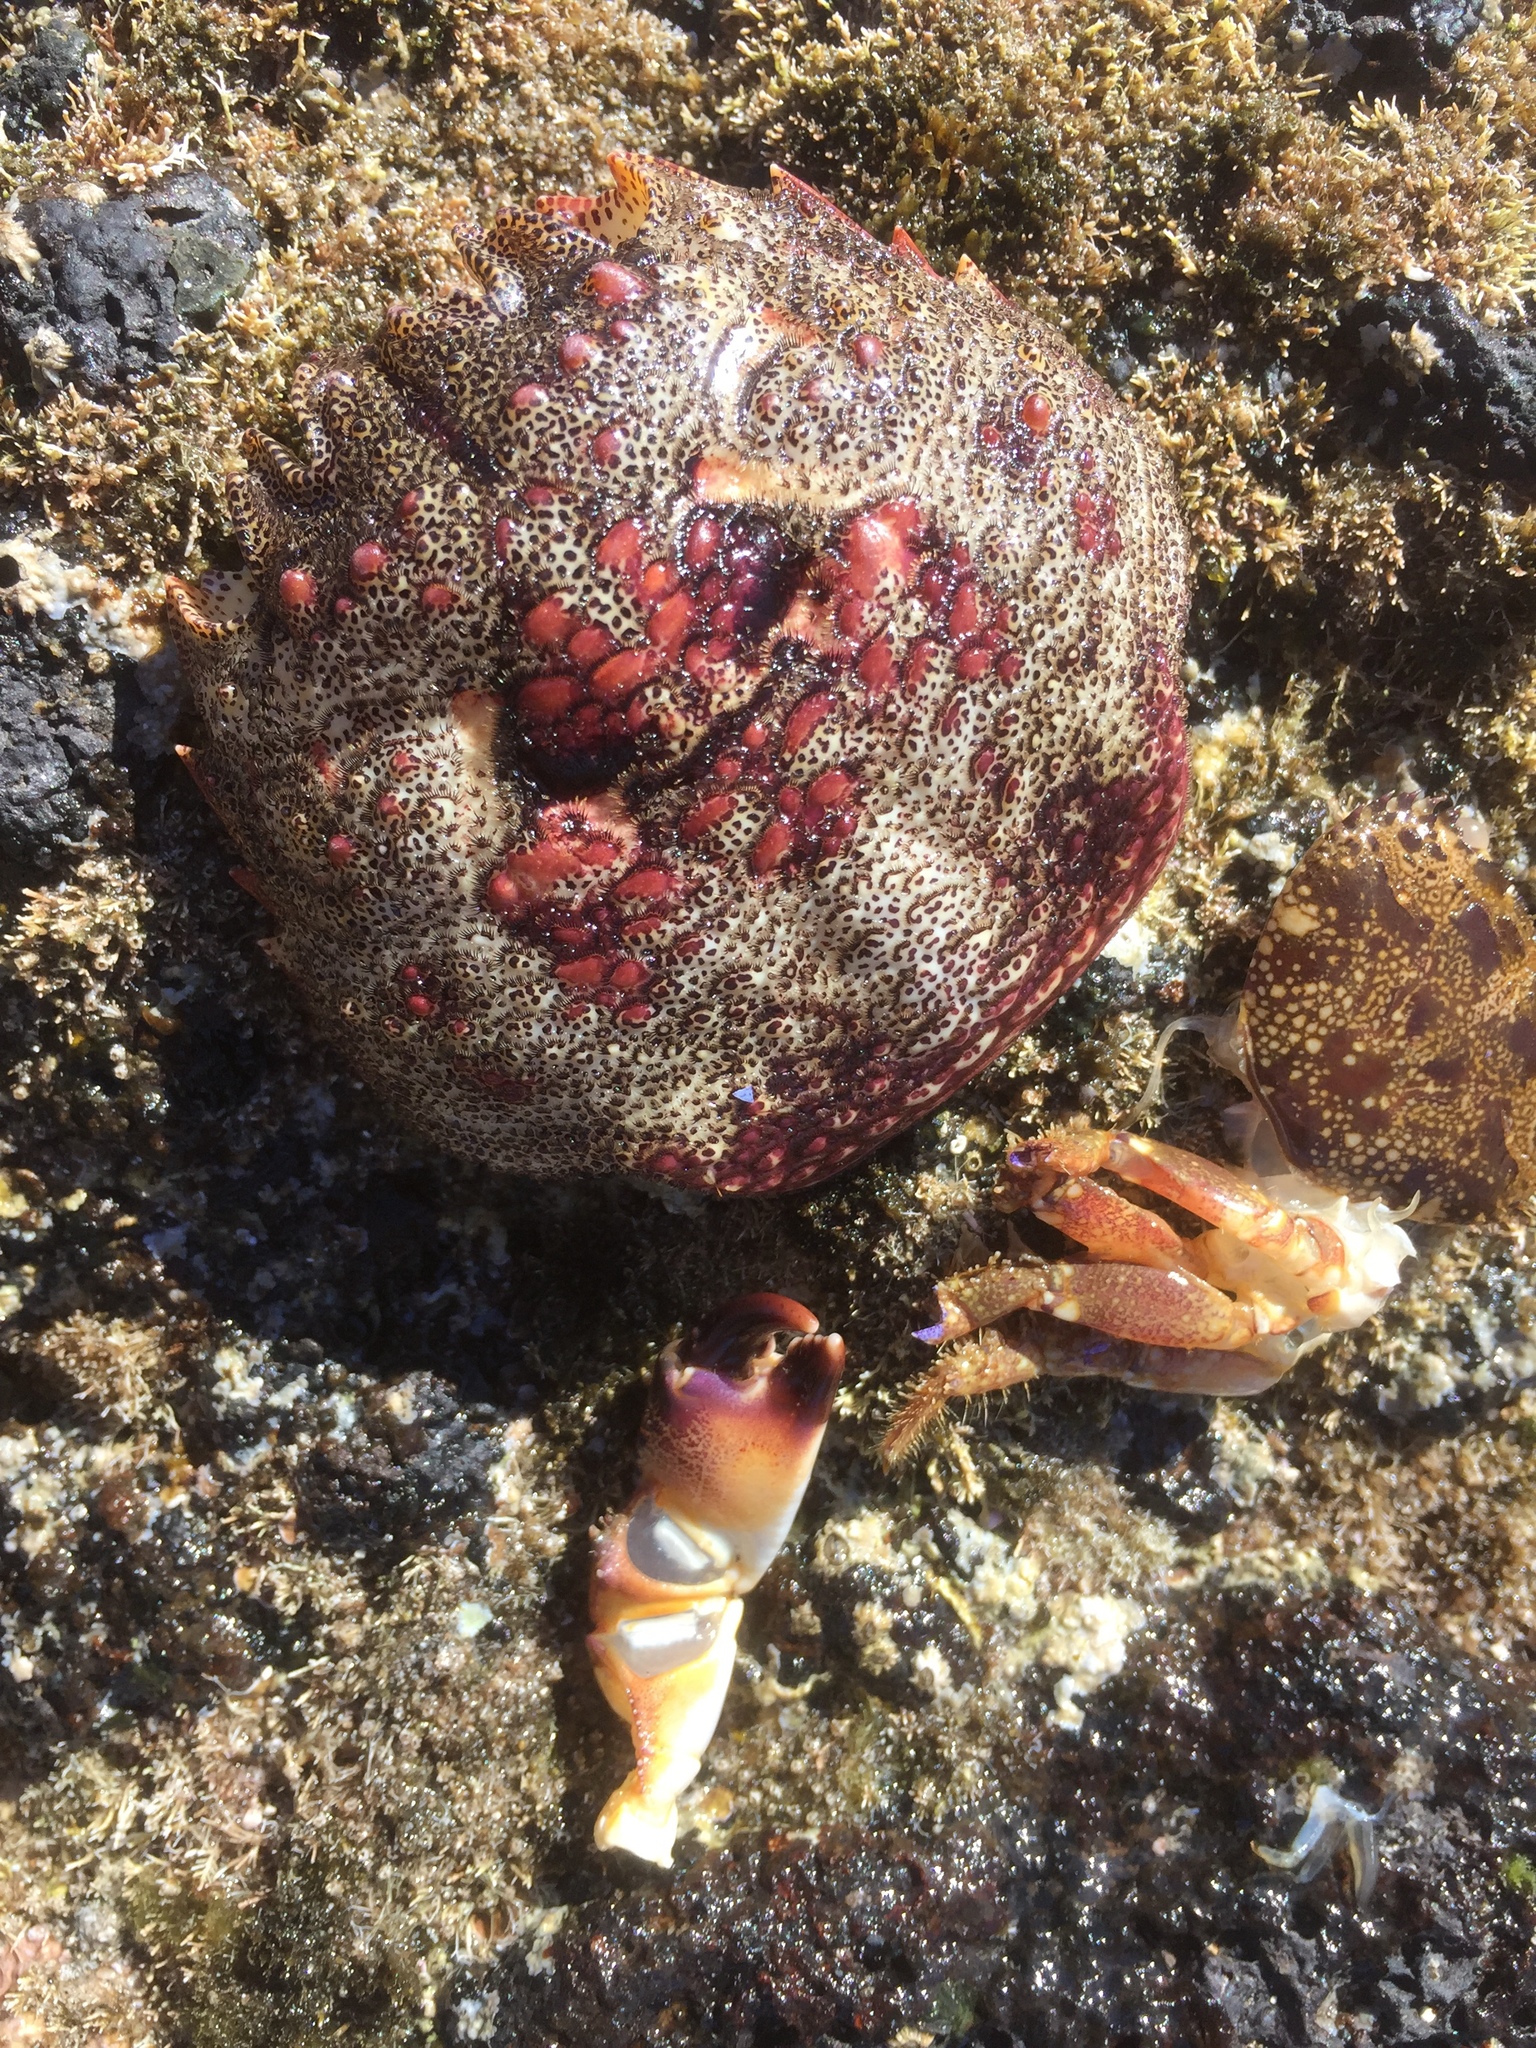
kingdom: Animalia
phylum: Arthropoda
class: Malacostraca
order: Decapoda
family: Plagusiidae
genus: Plagusia
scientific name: Plagusia depressa
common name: Flattened crab
